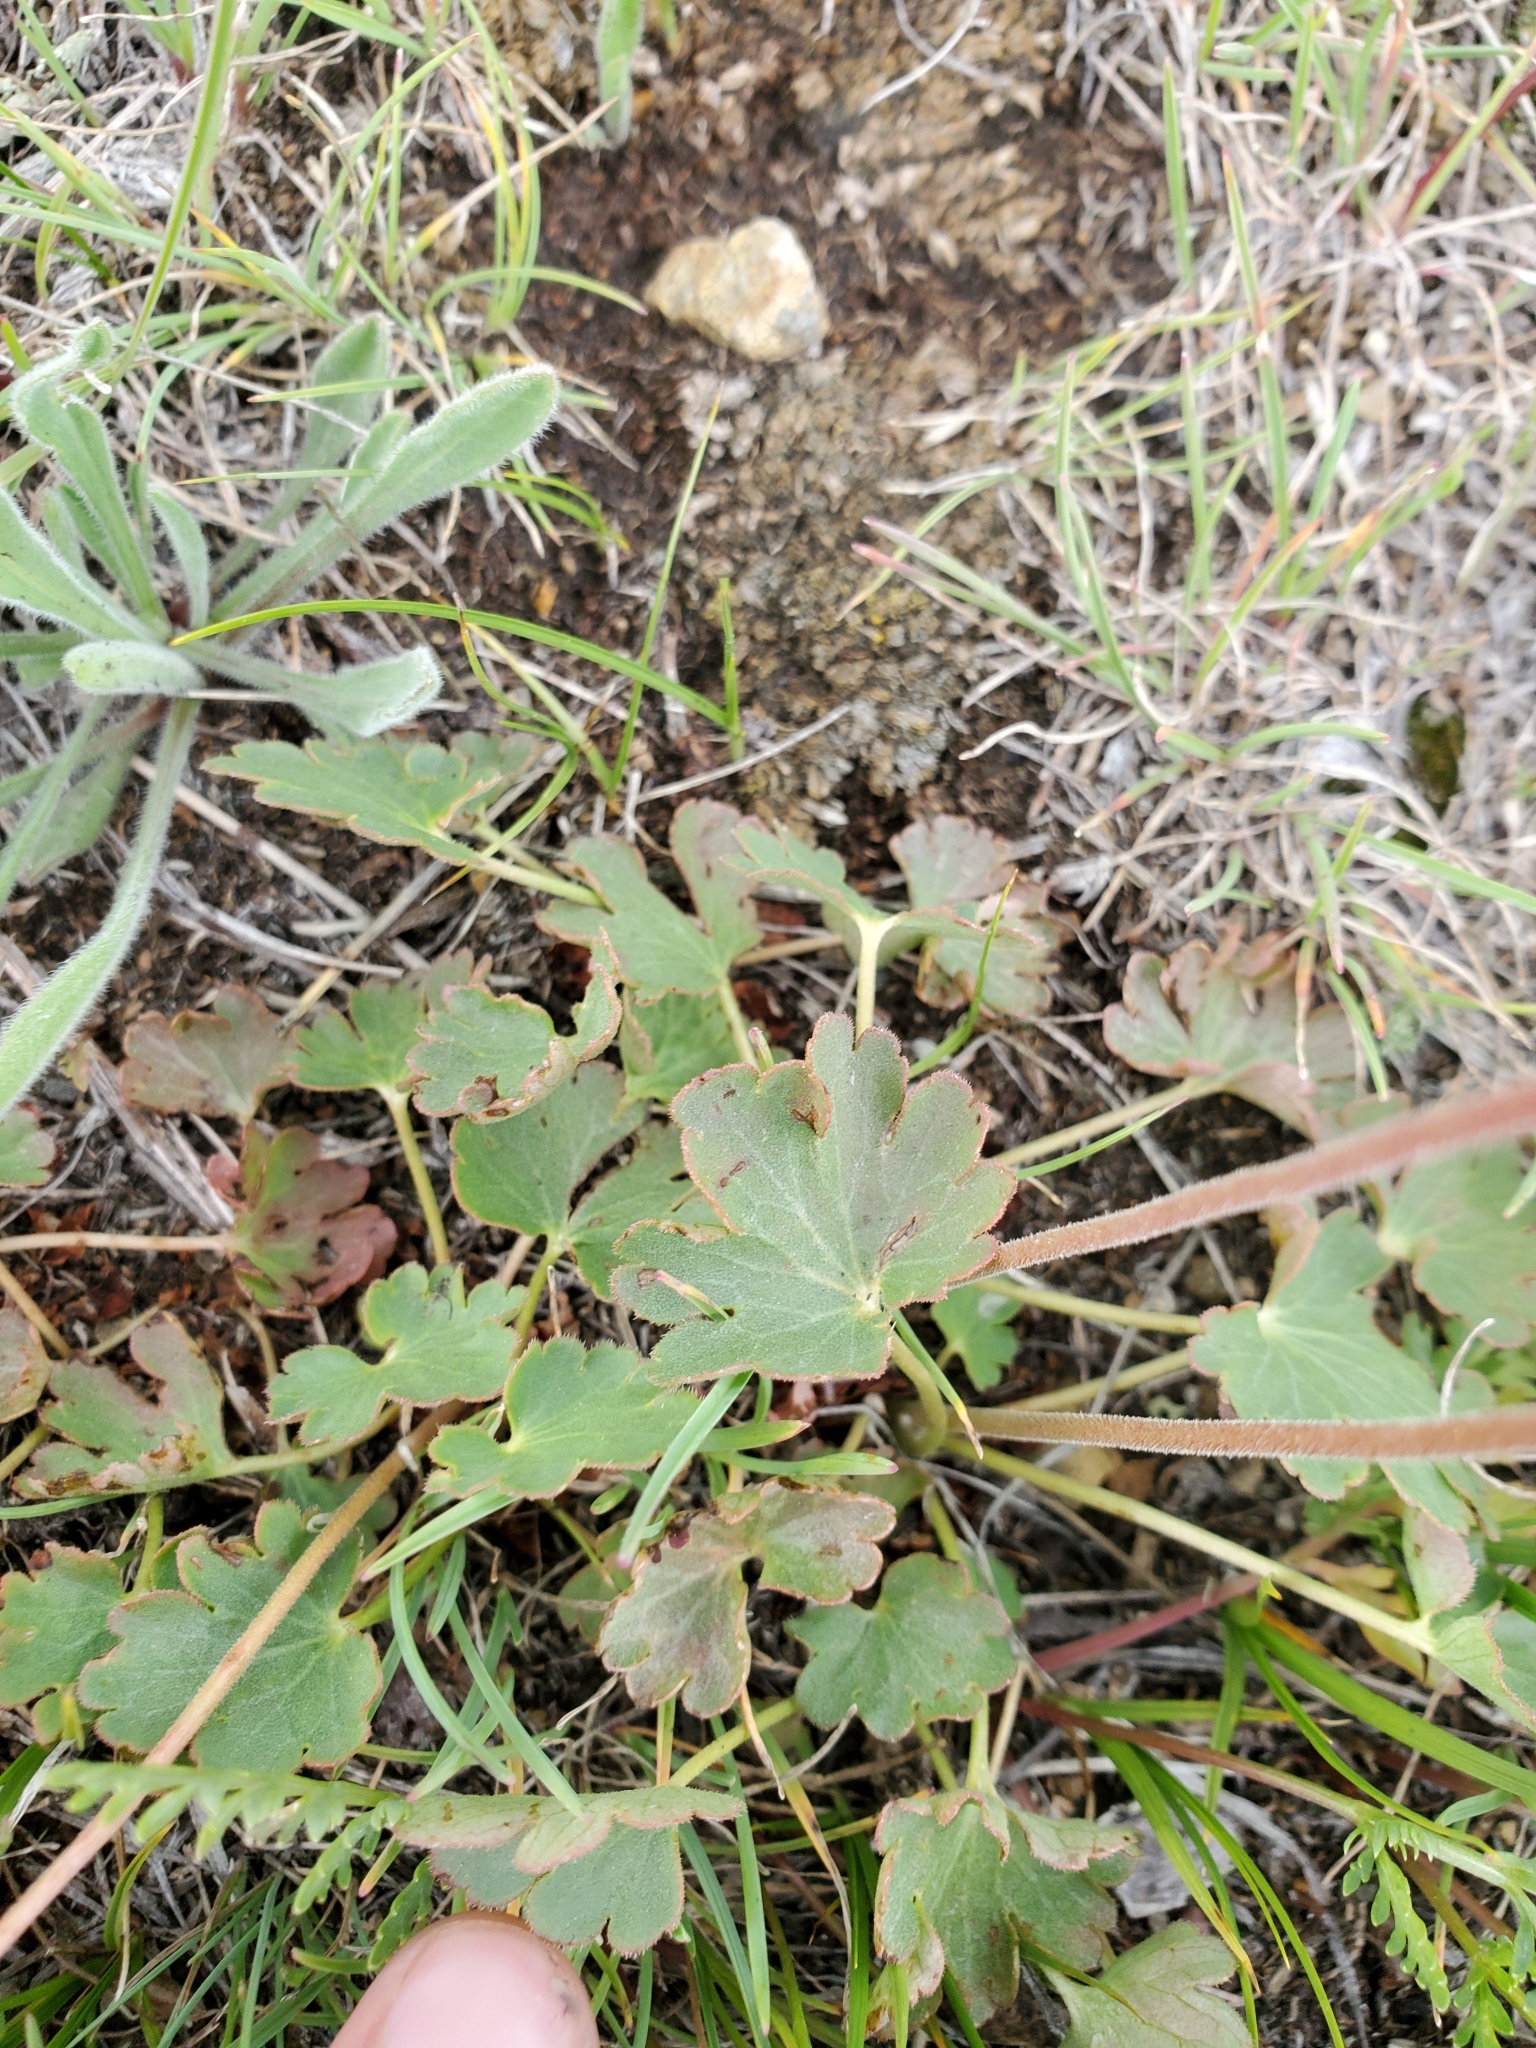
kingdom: Plantae
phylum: Tracheophyta
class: Magnoliopsida
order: Saxifragales
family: Saxifragaceae
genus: Heuchera
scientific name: Heuchera parvifolia
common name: Common alumroot
